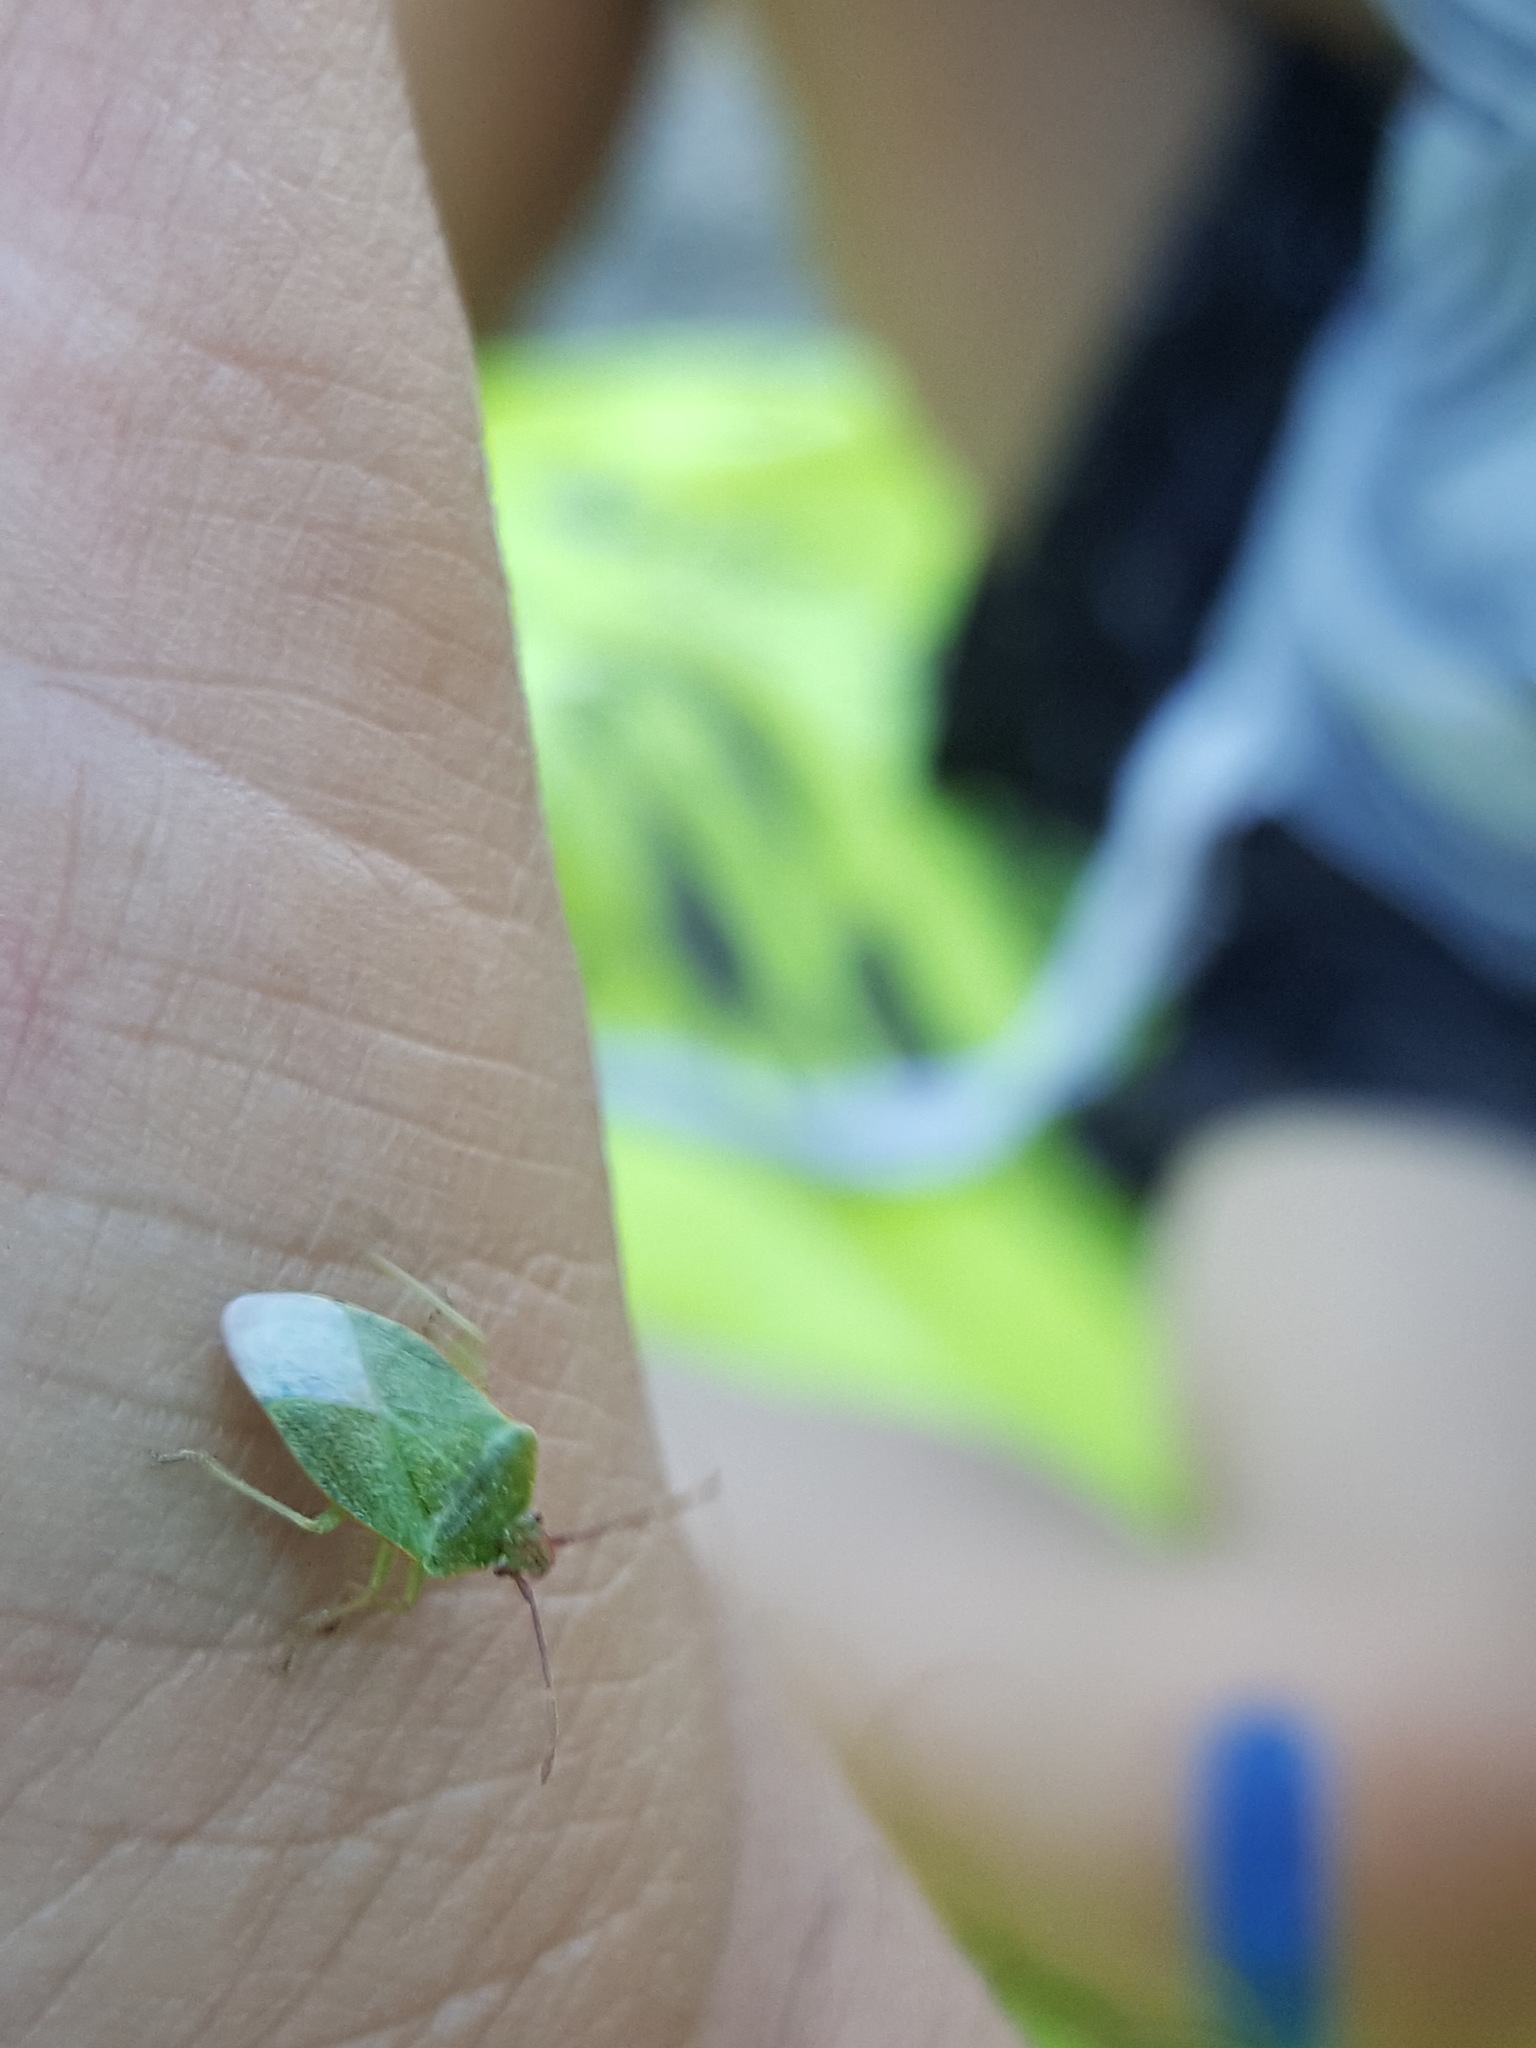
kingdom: Animalia
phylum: Arthropoda
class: Insecta
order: Hemiptera
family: Acanthosomatidae
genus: Sinopla
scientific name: Sinopla perpunctatus
